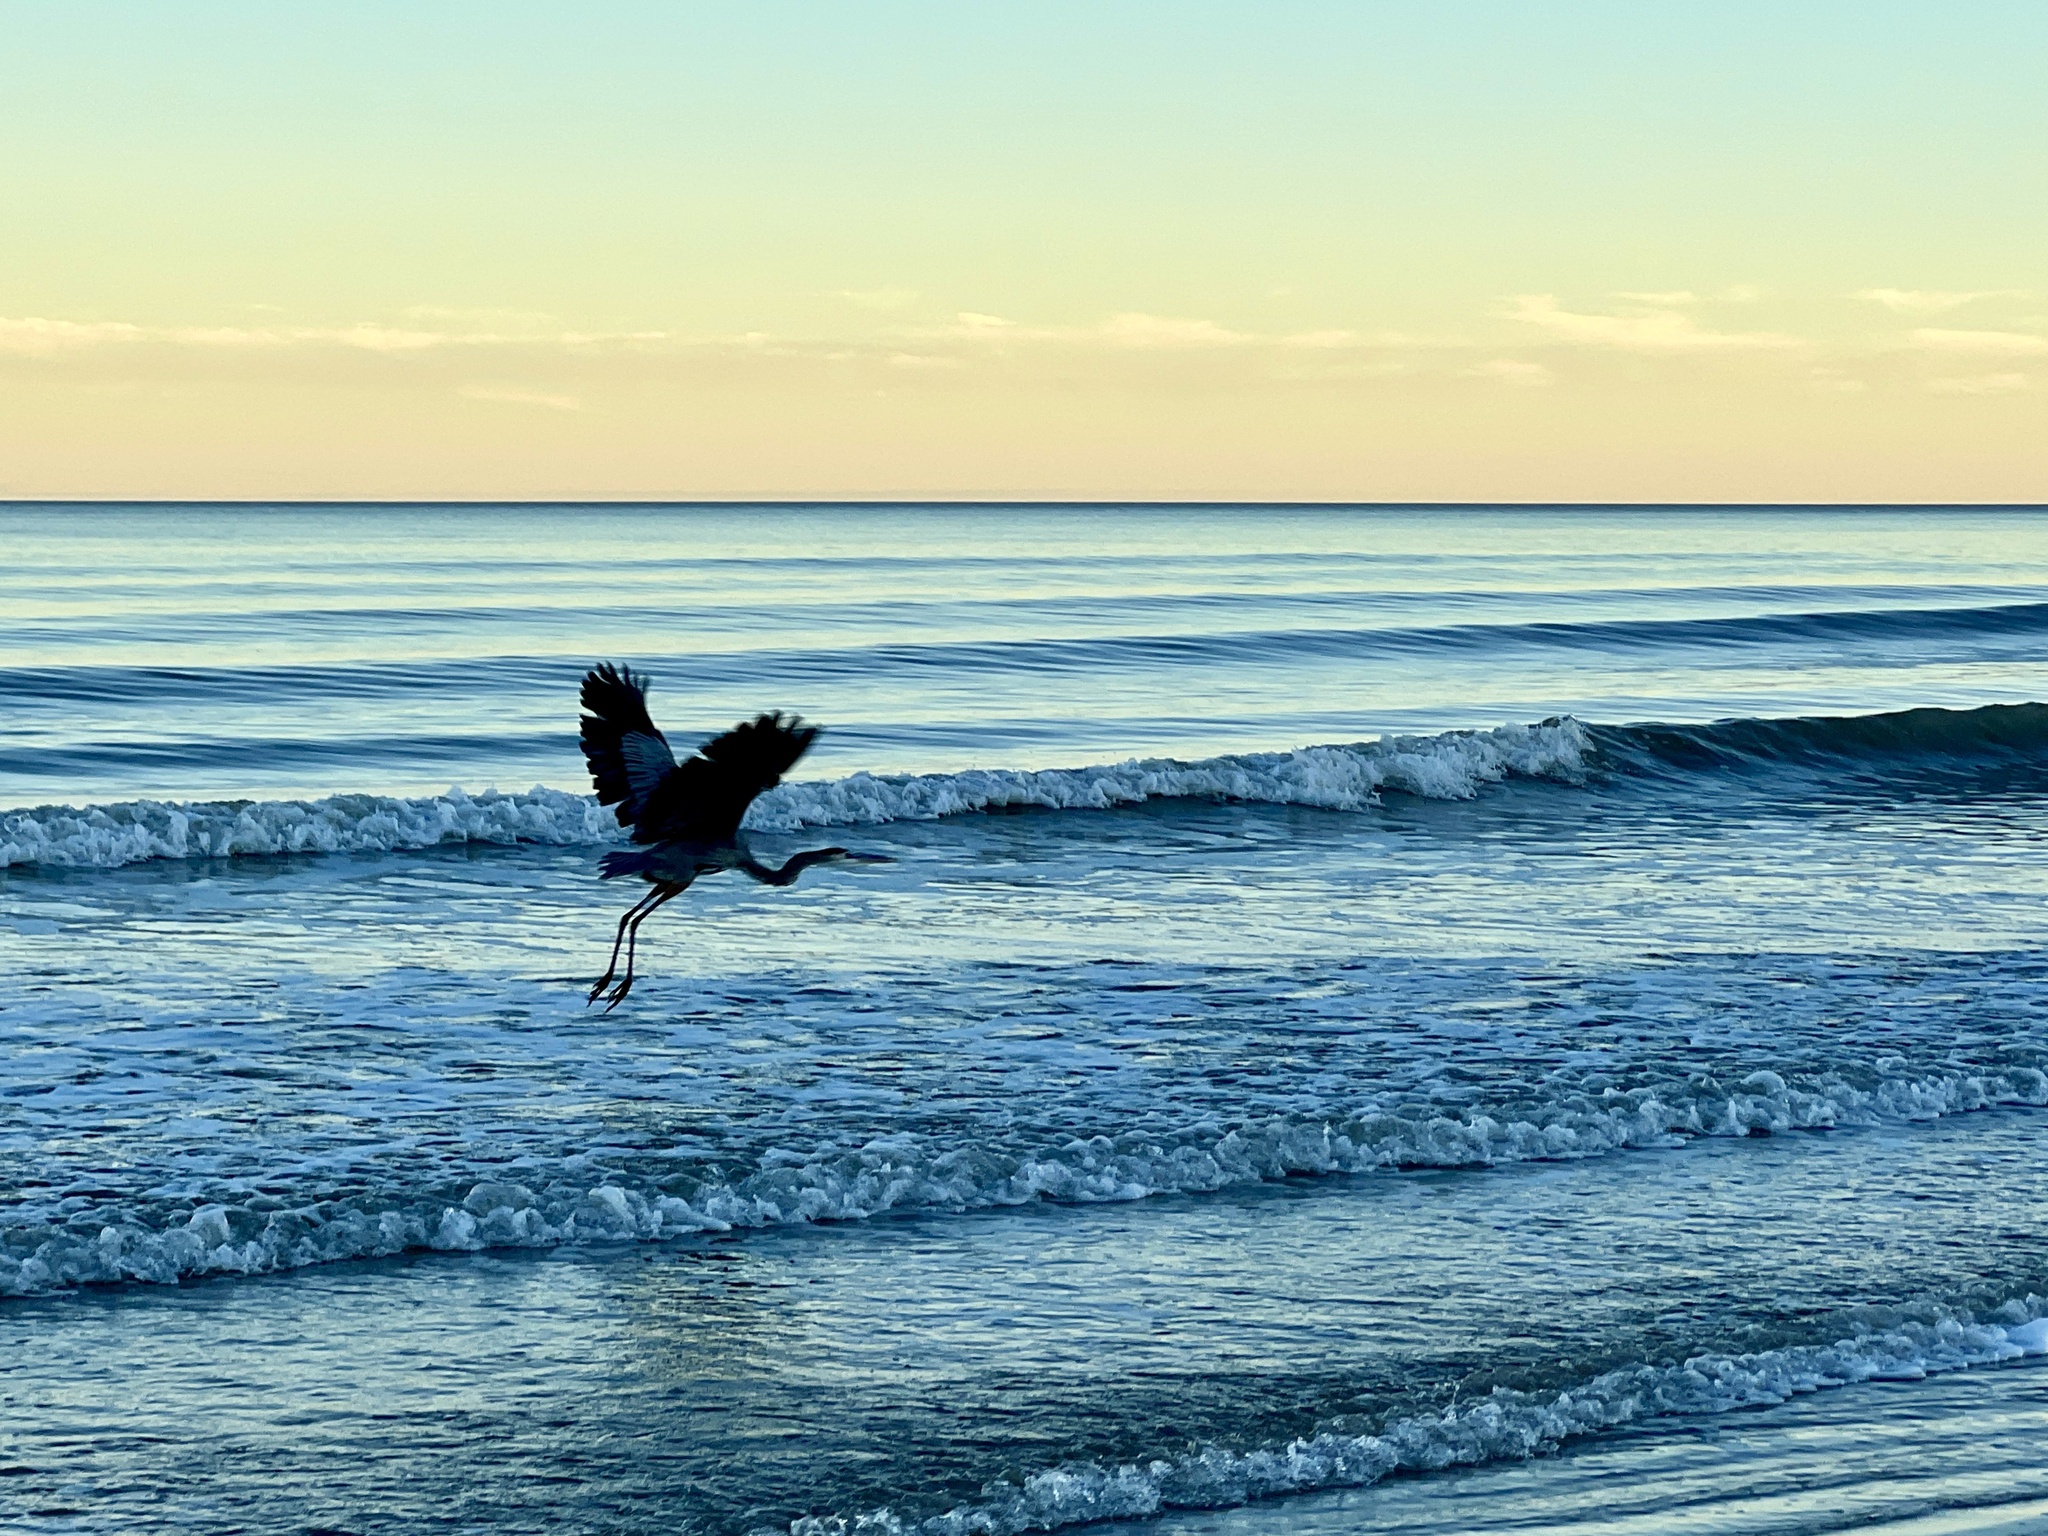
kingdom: Animalia
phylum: Chordata
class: Aves
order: Pelecaniformes
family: Ardeidae
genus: Ardea
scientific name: Ardea herodias
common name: Great blue heron
